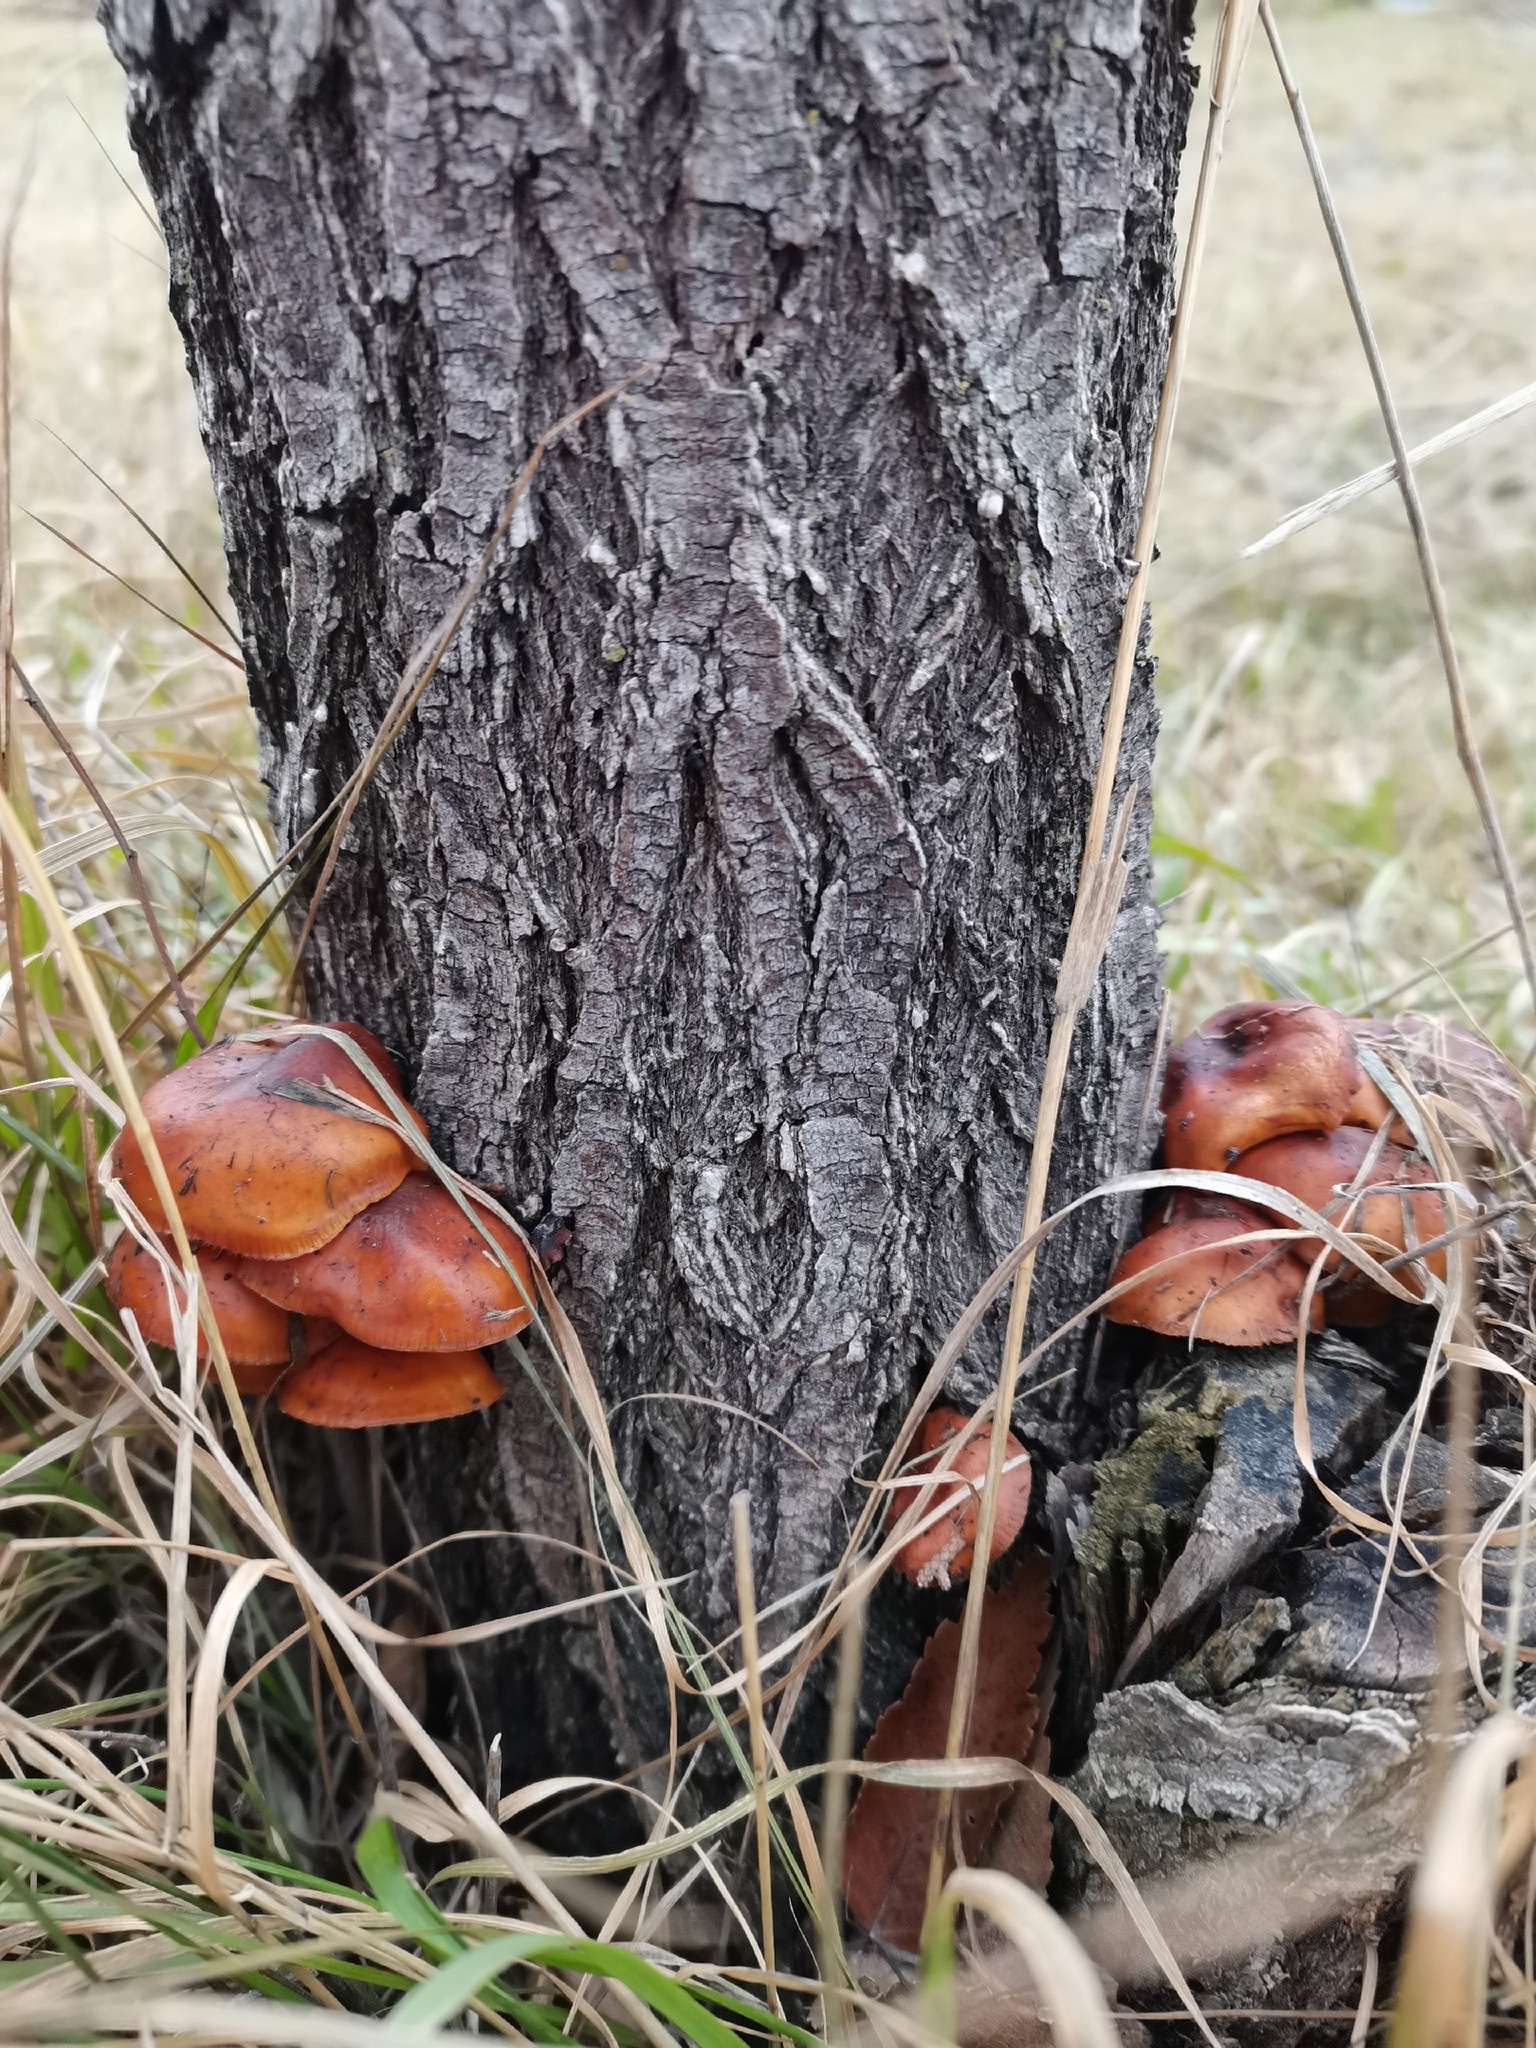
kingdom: Fungi
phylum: Basidiomycota
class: Agaricomycetes
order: Agaricales
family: Physalacriaceae
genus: Flammulina
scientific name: Flammulina
